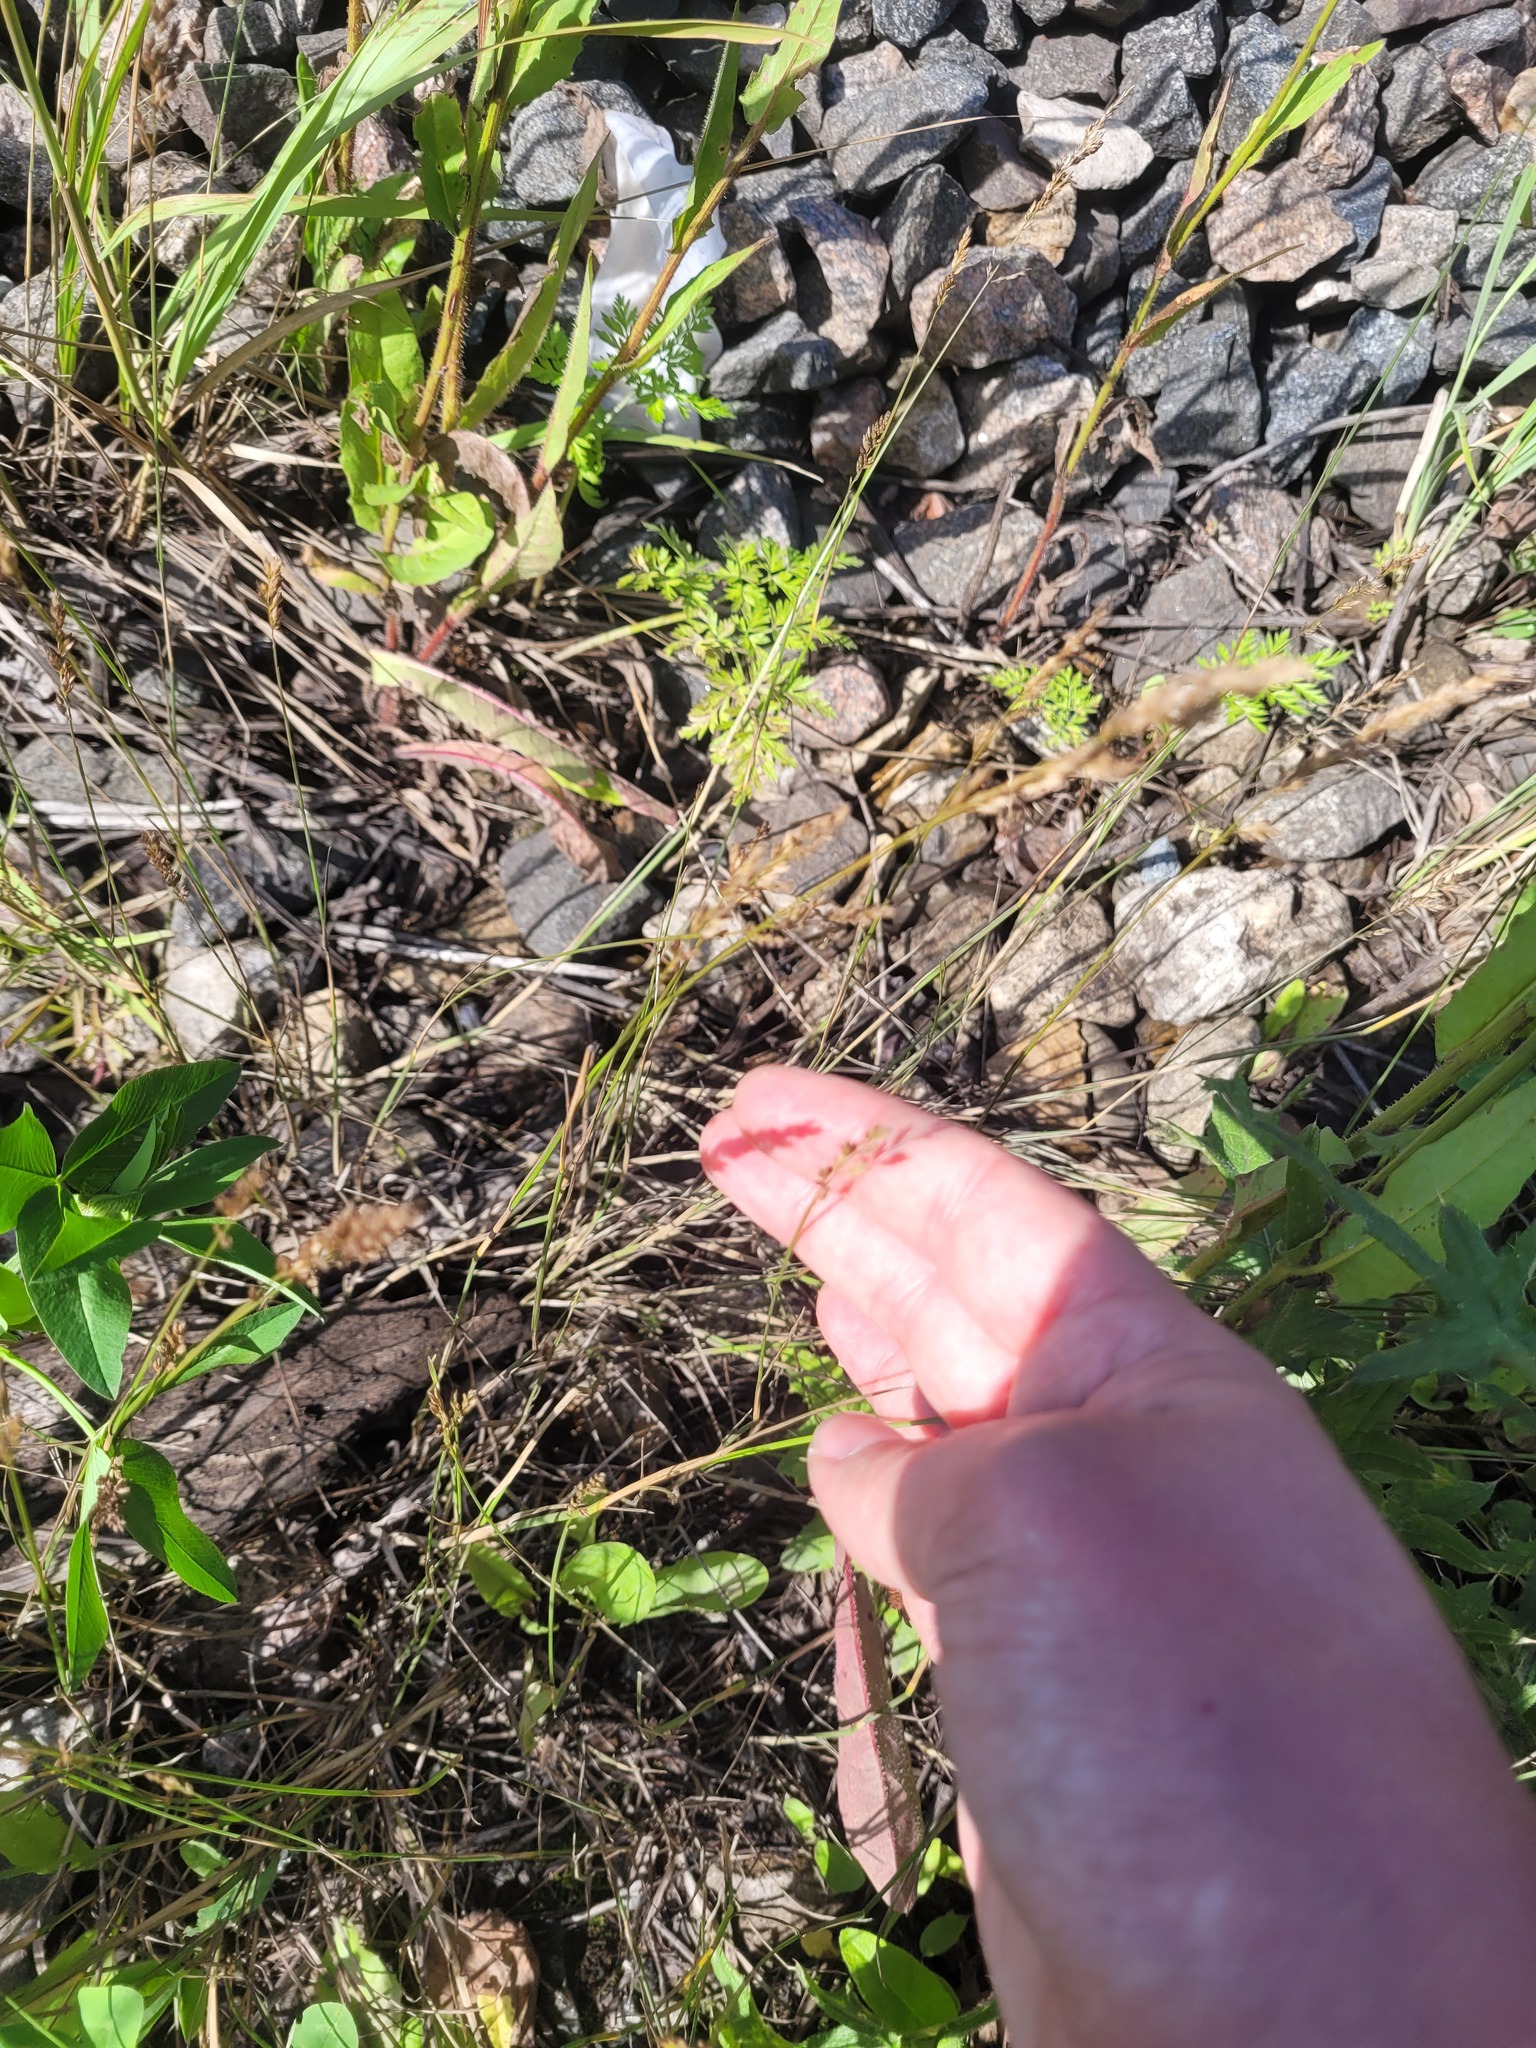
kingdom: Plantae
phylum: Tracheophyta
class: Liliopsida
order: Poales
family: Poaceae
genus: Poa
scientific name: Poa compressa
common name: Canada bluegrass
